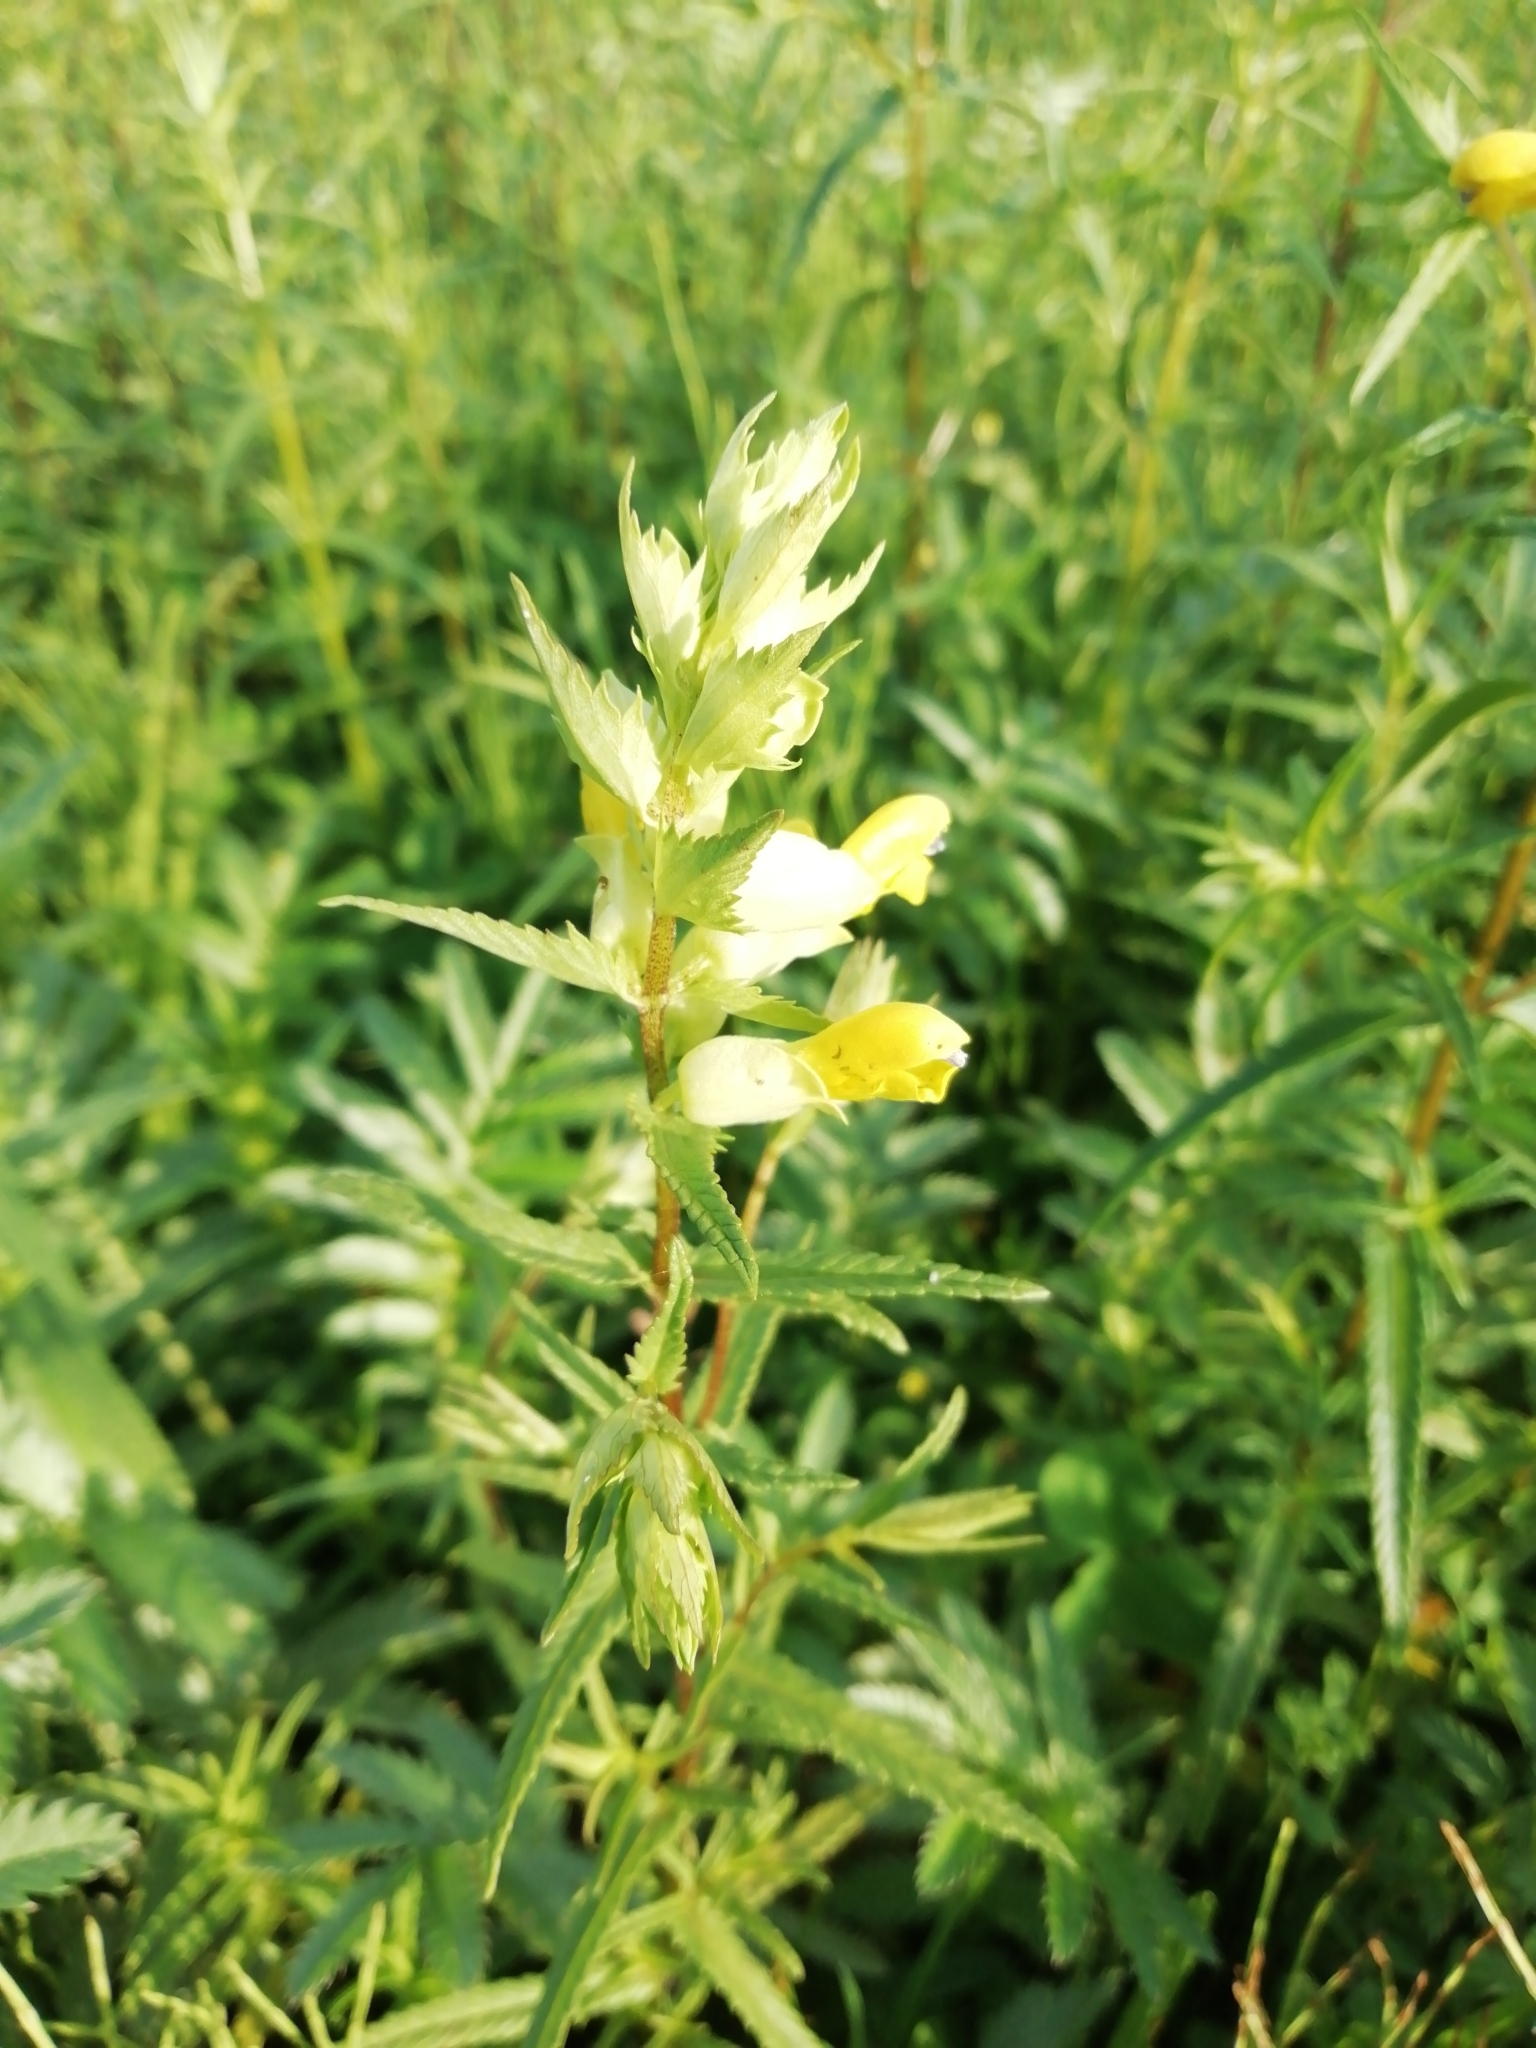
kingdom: Plantae
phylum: Tracheophyta
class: Magnoliopsida
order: Lamiales
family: Orobanchaceae
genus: Rhinanthus
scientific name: Rhinanthus serotinus
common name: Late-flowering yellow rattle
